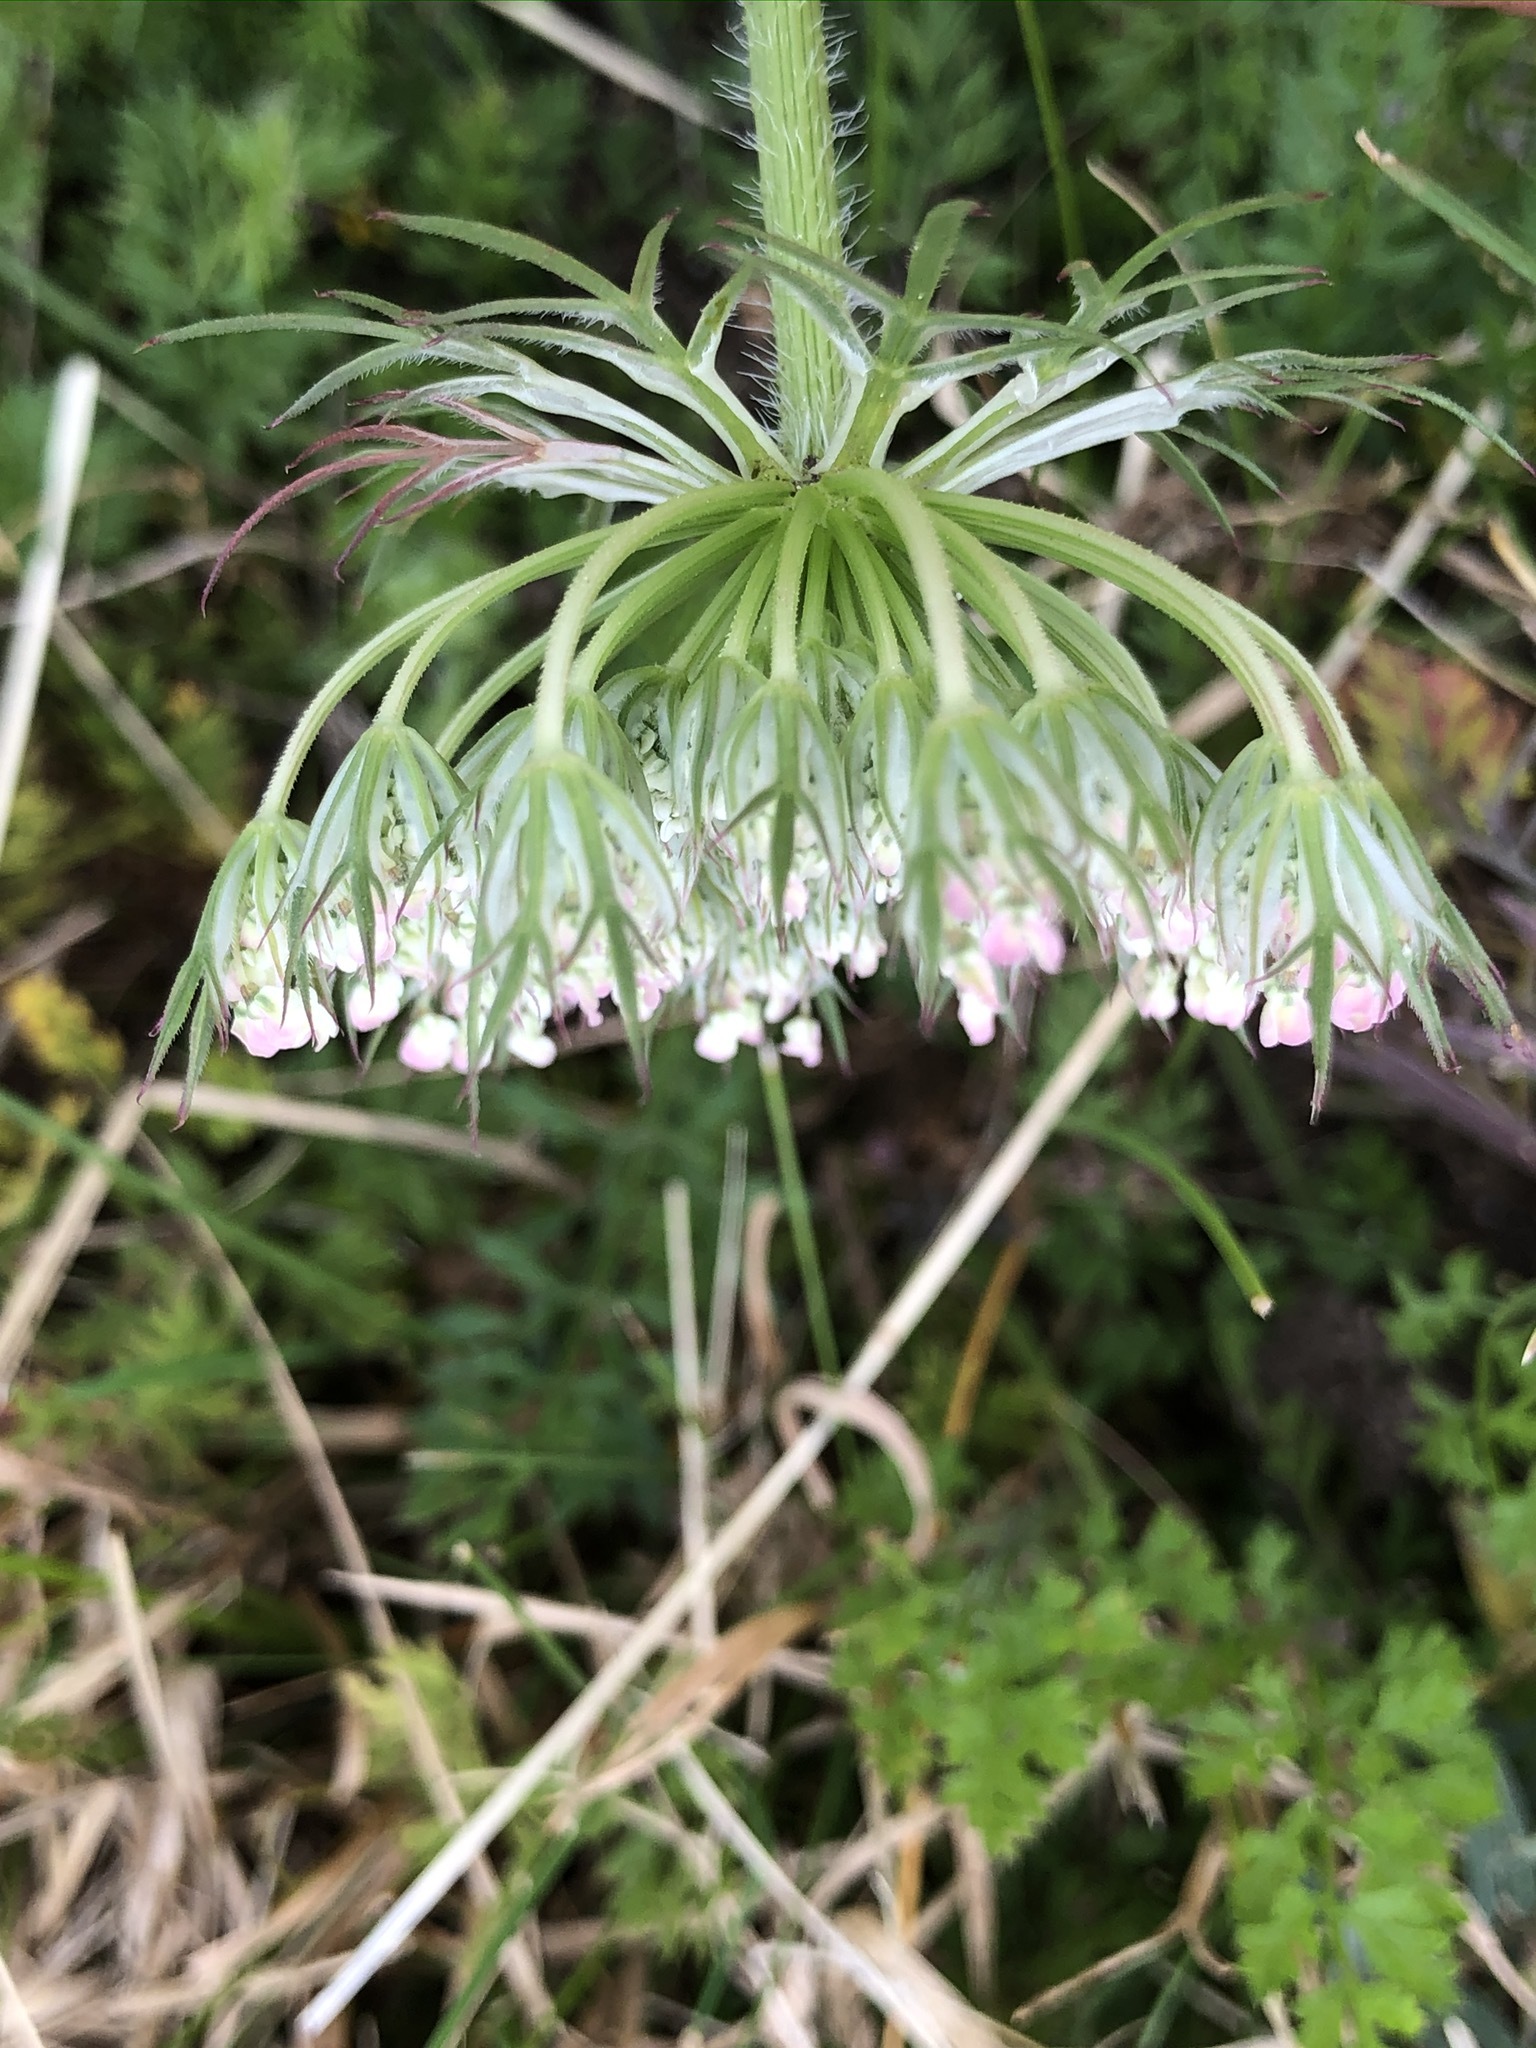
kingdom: Plantae
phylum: Tracheophyta
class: Magnoliopsida
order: Apiales
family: Apiaceae
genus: Daucus
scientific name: Daucus carota
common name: Wild carrot
